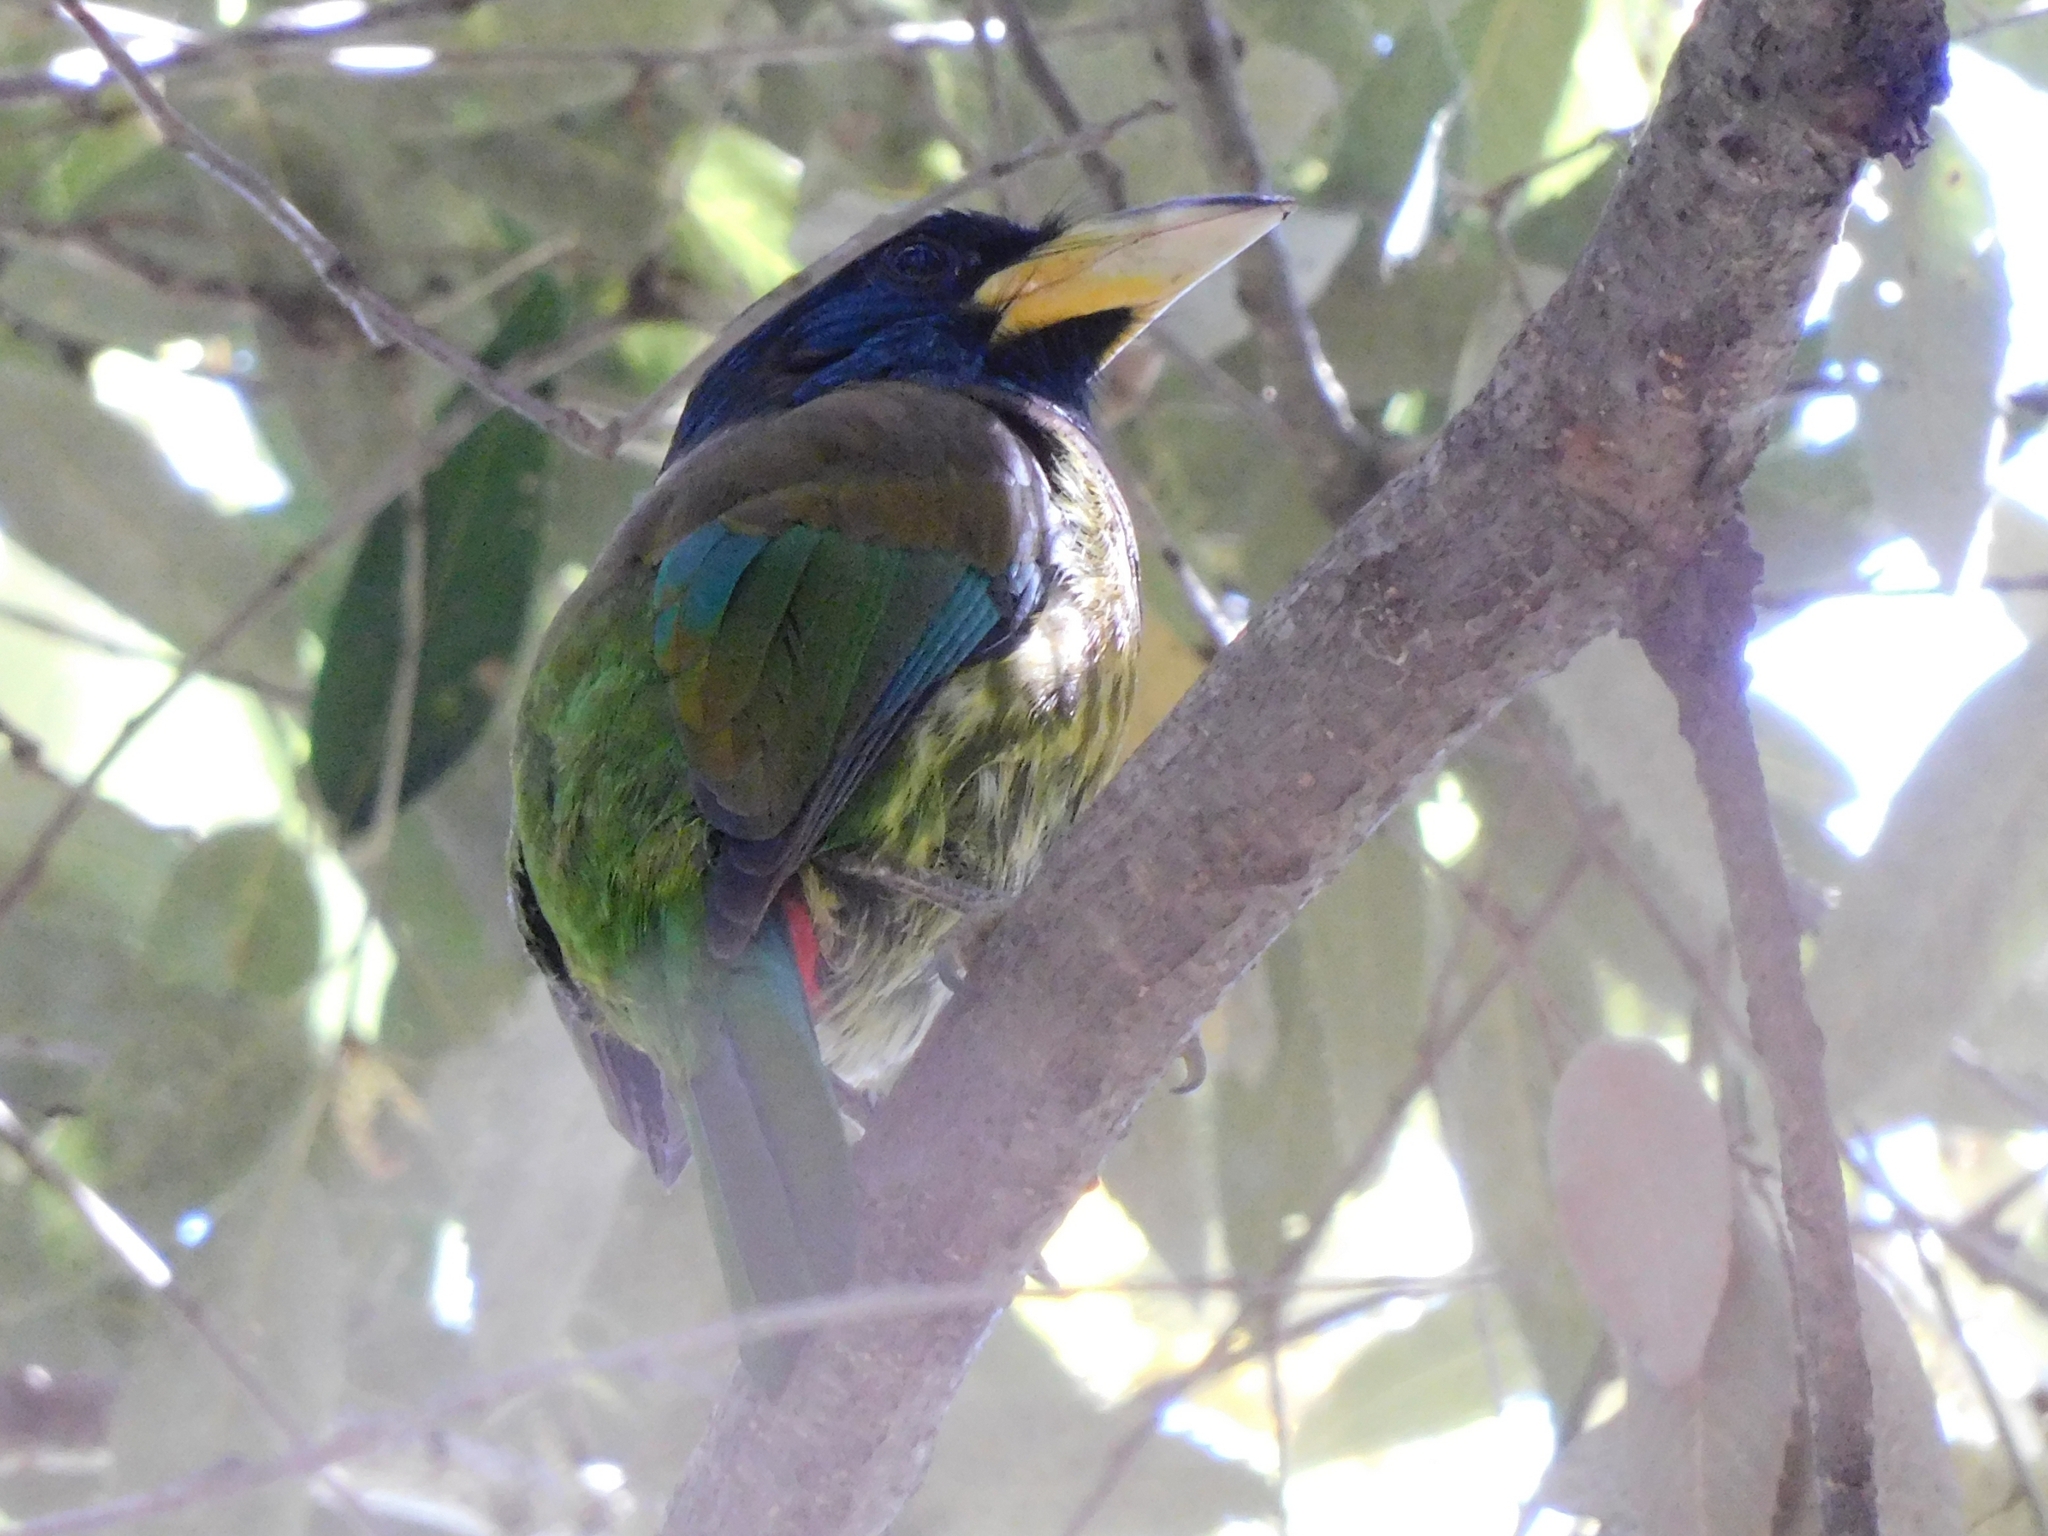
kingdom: Animalia
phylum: Chordata
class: Aves
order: Piciformes
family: Megalaimidae
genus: Psilopogon
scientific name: Psilopogon virens
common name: Great barbet
